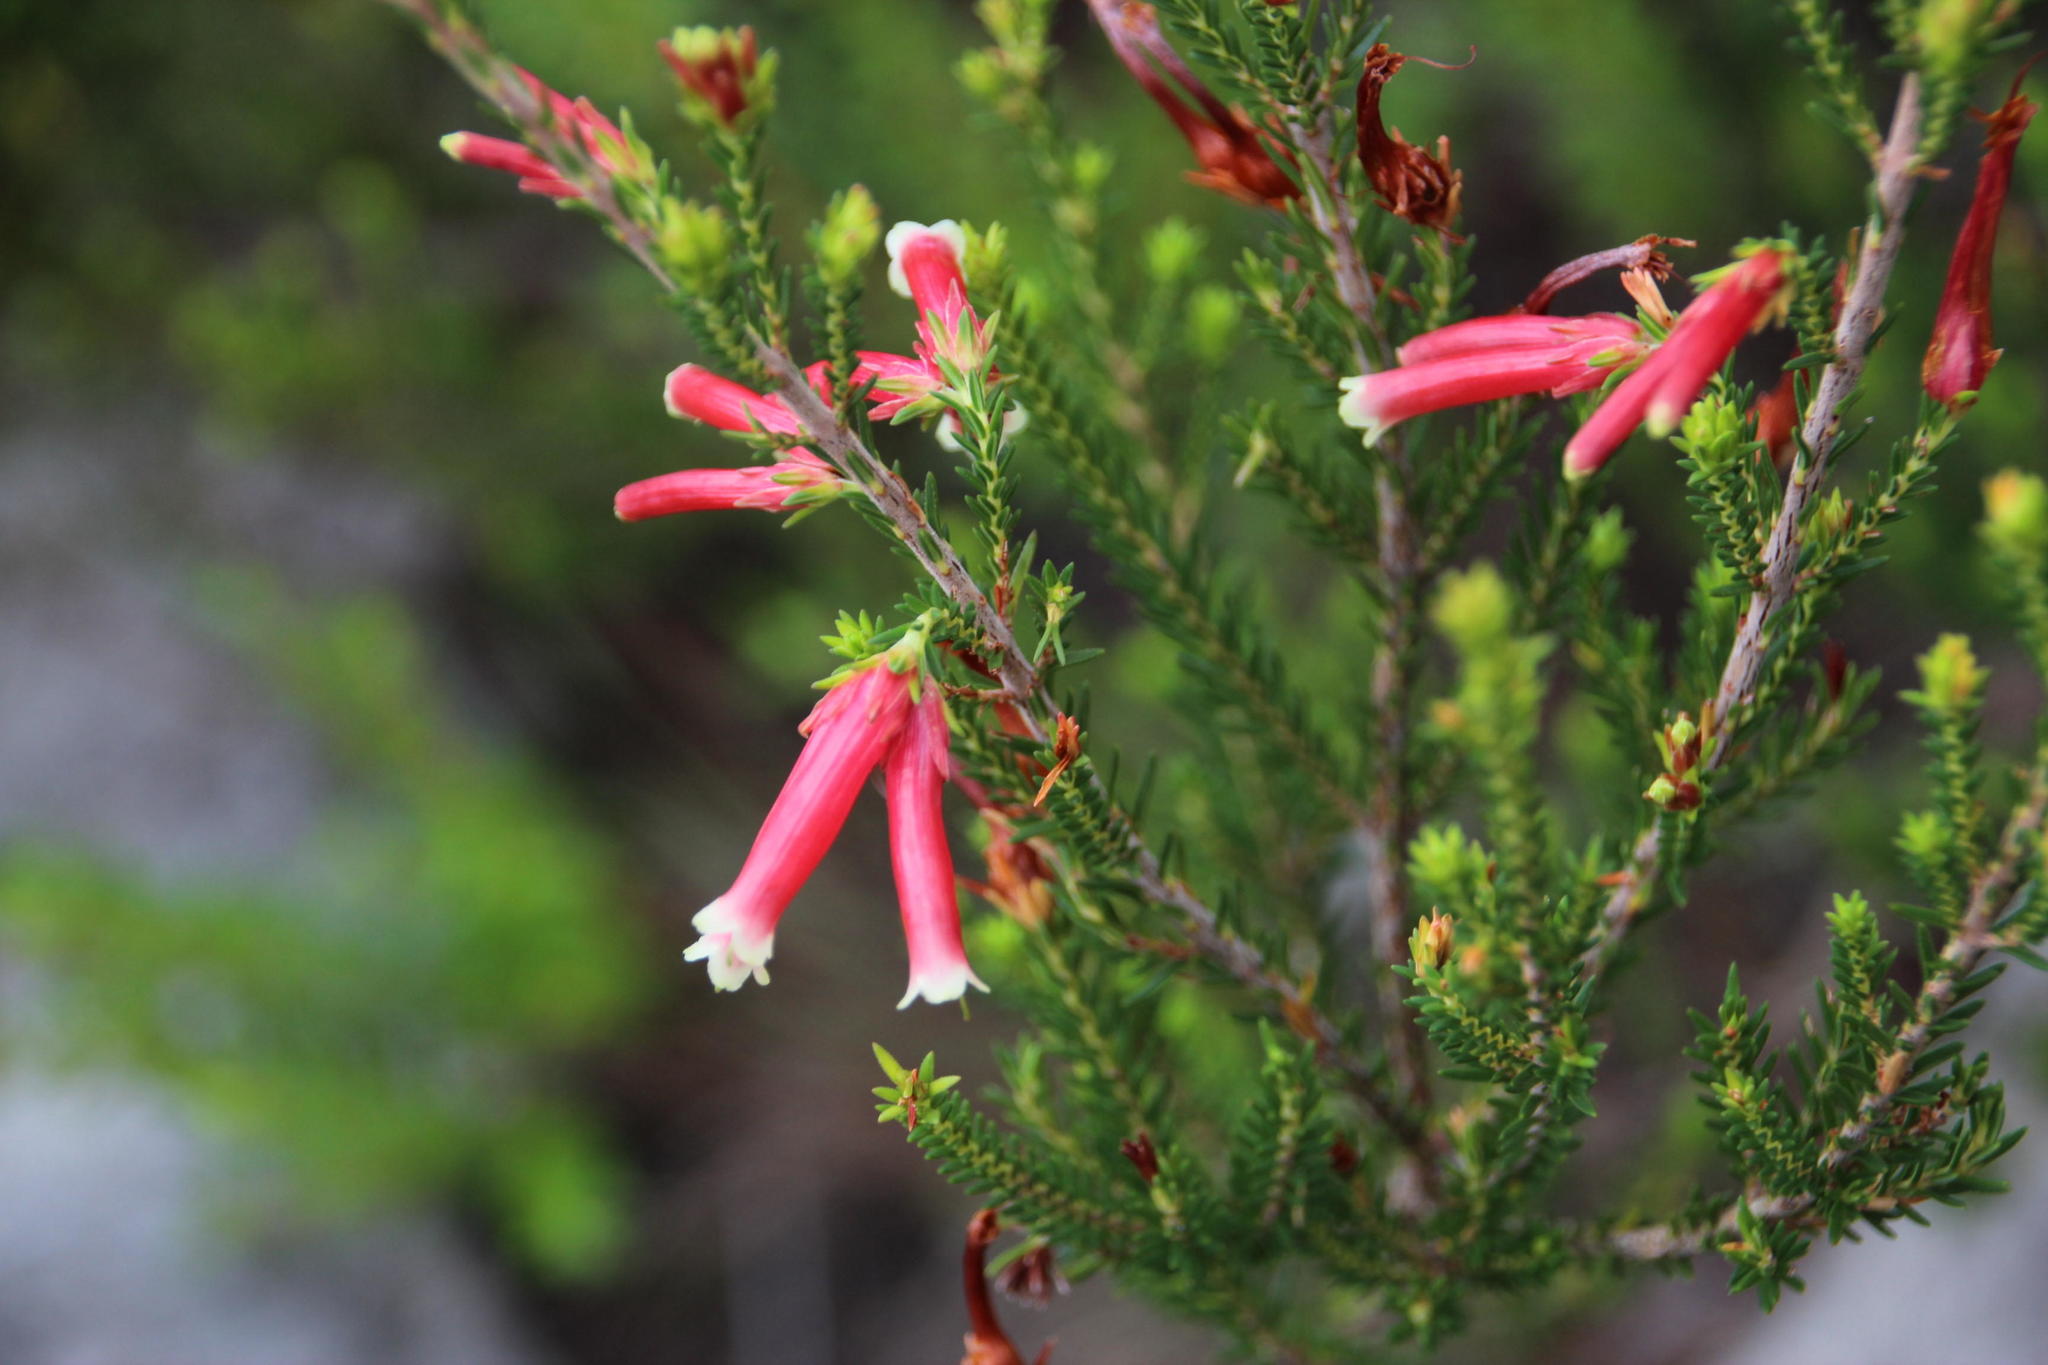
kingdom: Plantae
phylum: Tracheophyta
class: Magnoliopsida
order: Ericales
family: Ericaceae
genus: Erica
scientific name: Erica versicolor
